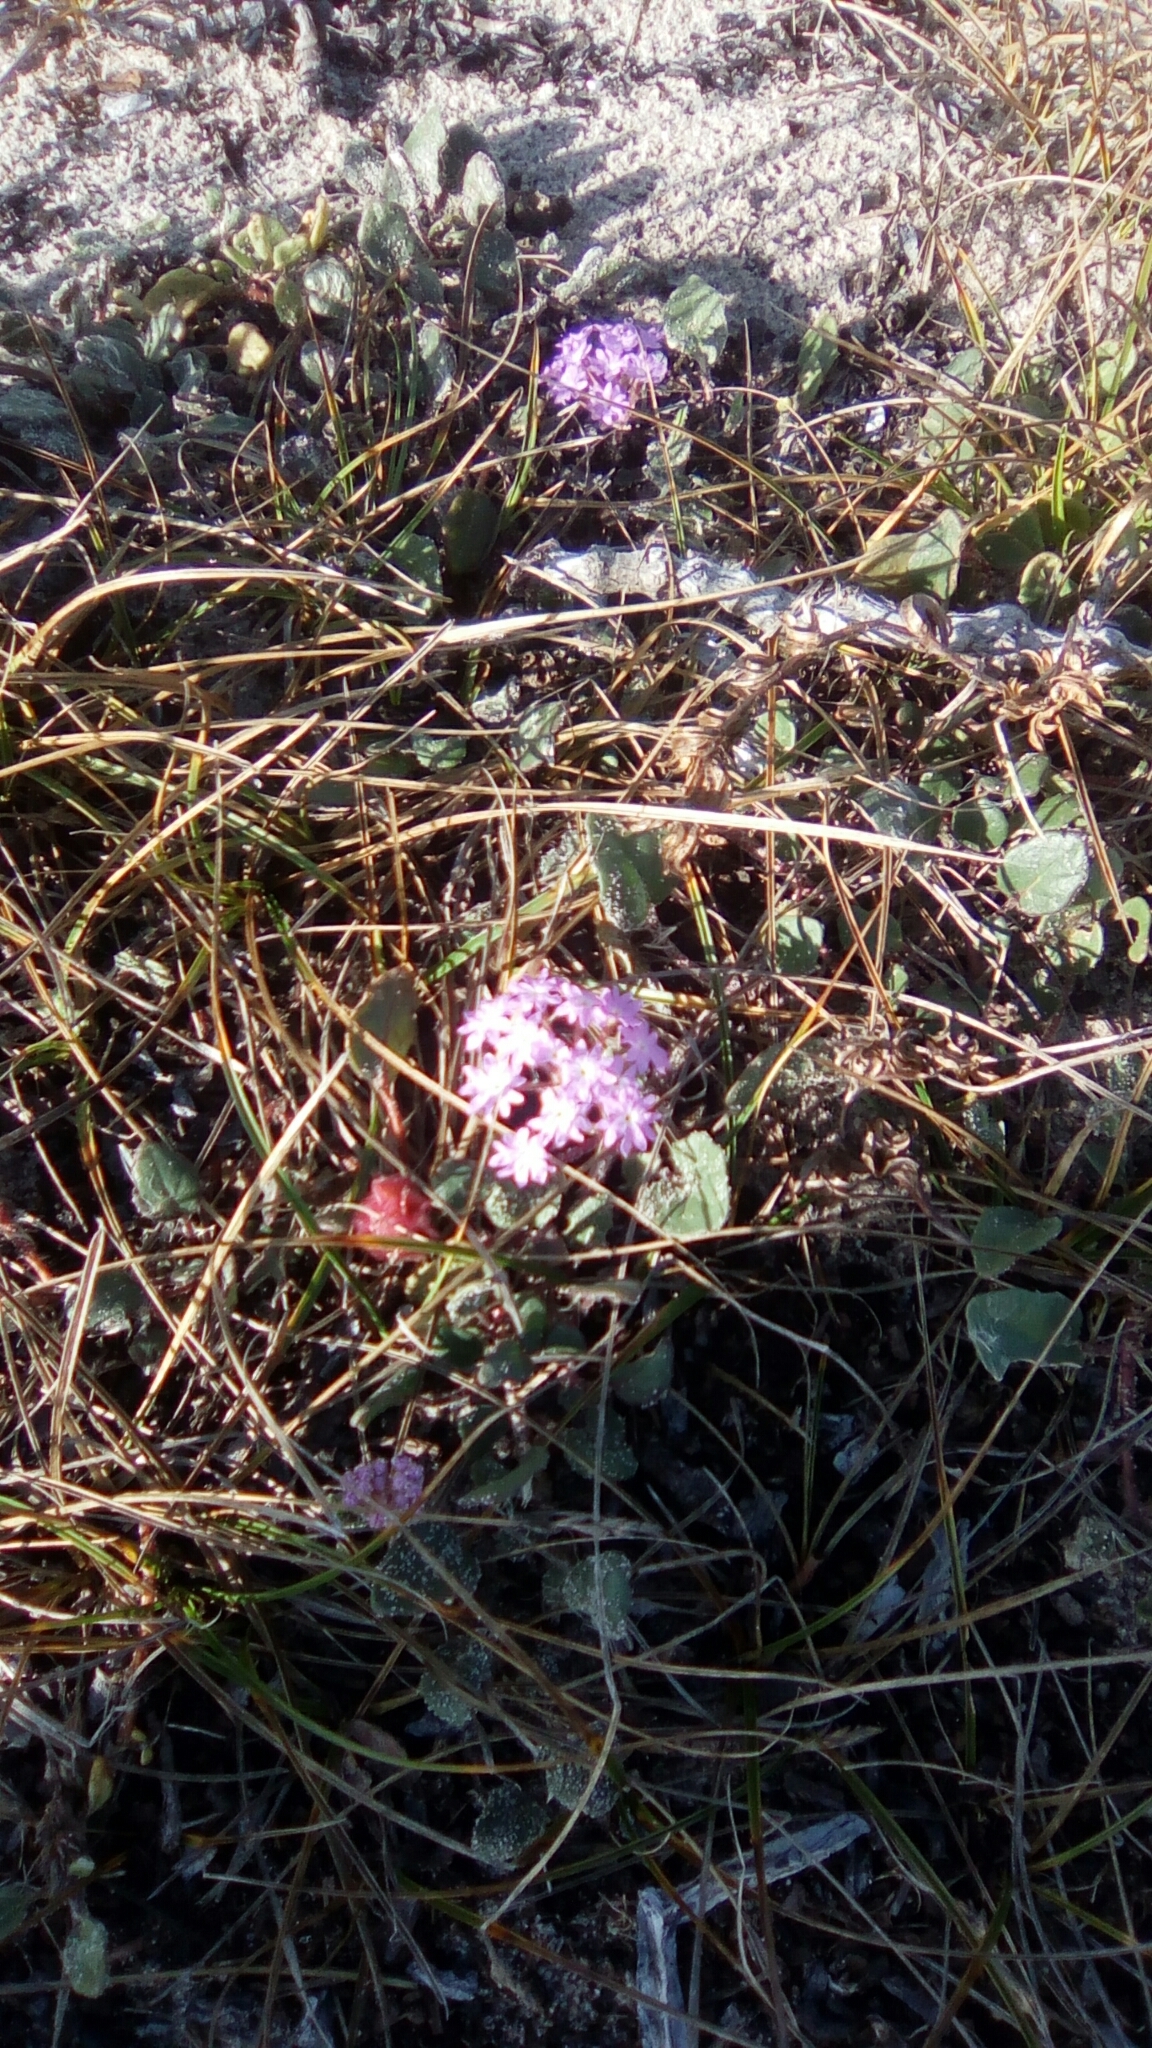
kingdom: Plantae
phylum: Tracheophyta
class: Magnoliopsida
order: Caryophyllales
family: Nyctaginaceae
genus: Abronia
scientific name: Abronia umbellata
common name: Sand-verbena
